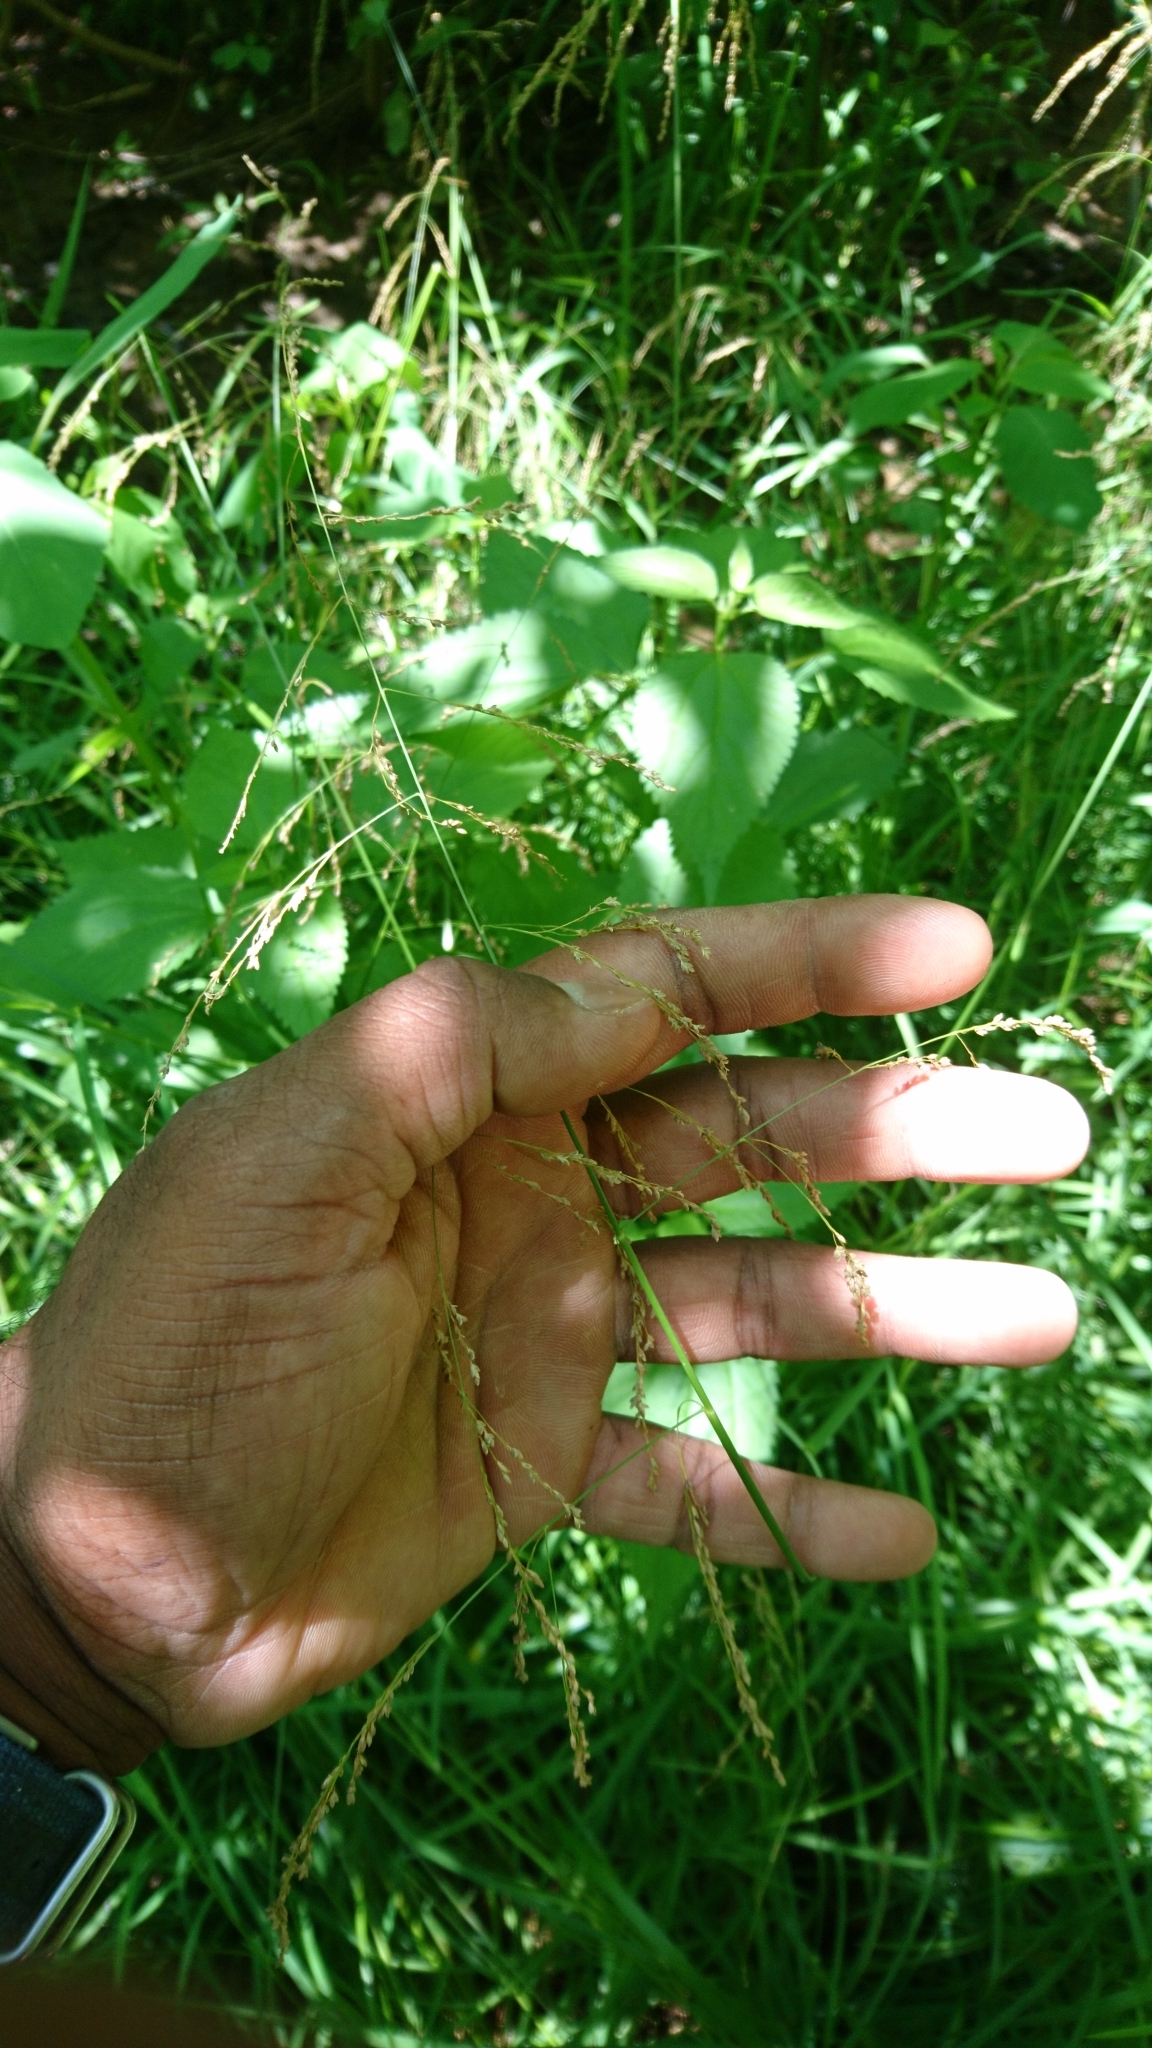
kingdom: Plantae
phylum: Tracheophyta
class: Liliopsida
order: Poales
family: Poaceae
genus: Glyceria
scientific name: Glyceria striata
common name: Fowl manna grass
